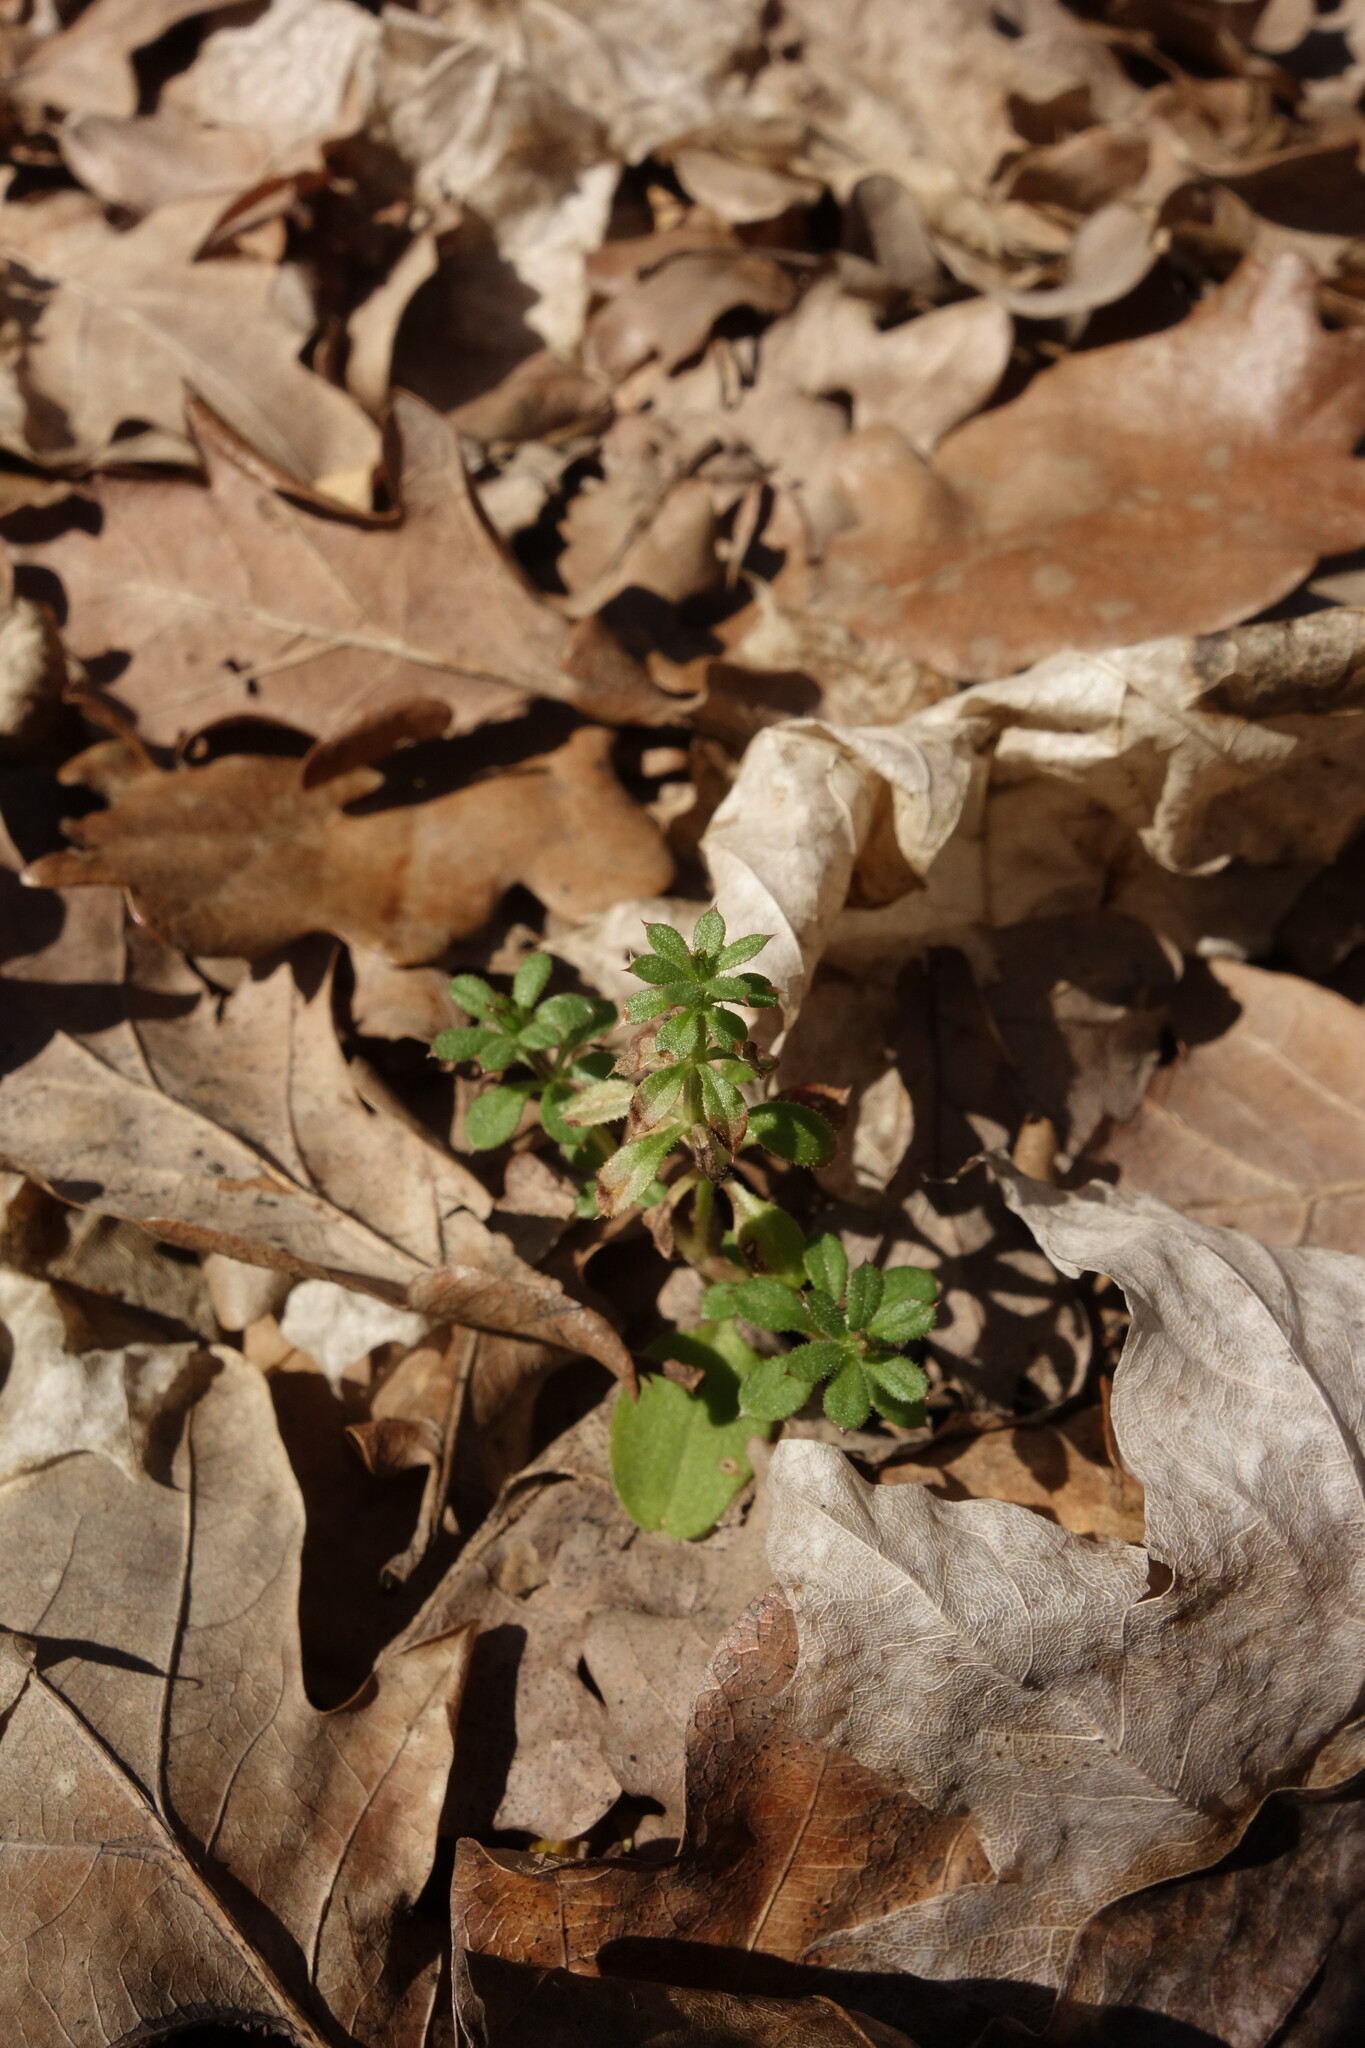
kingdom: Plantae
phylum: Tracheophyta
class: Magnoliopsida
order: Gentianales
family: Rubiaceae
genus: Galium
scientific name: Galium aparine
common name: Cleavers
